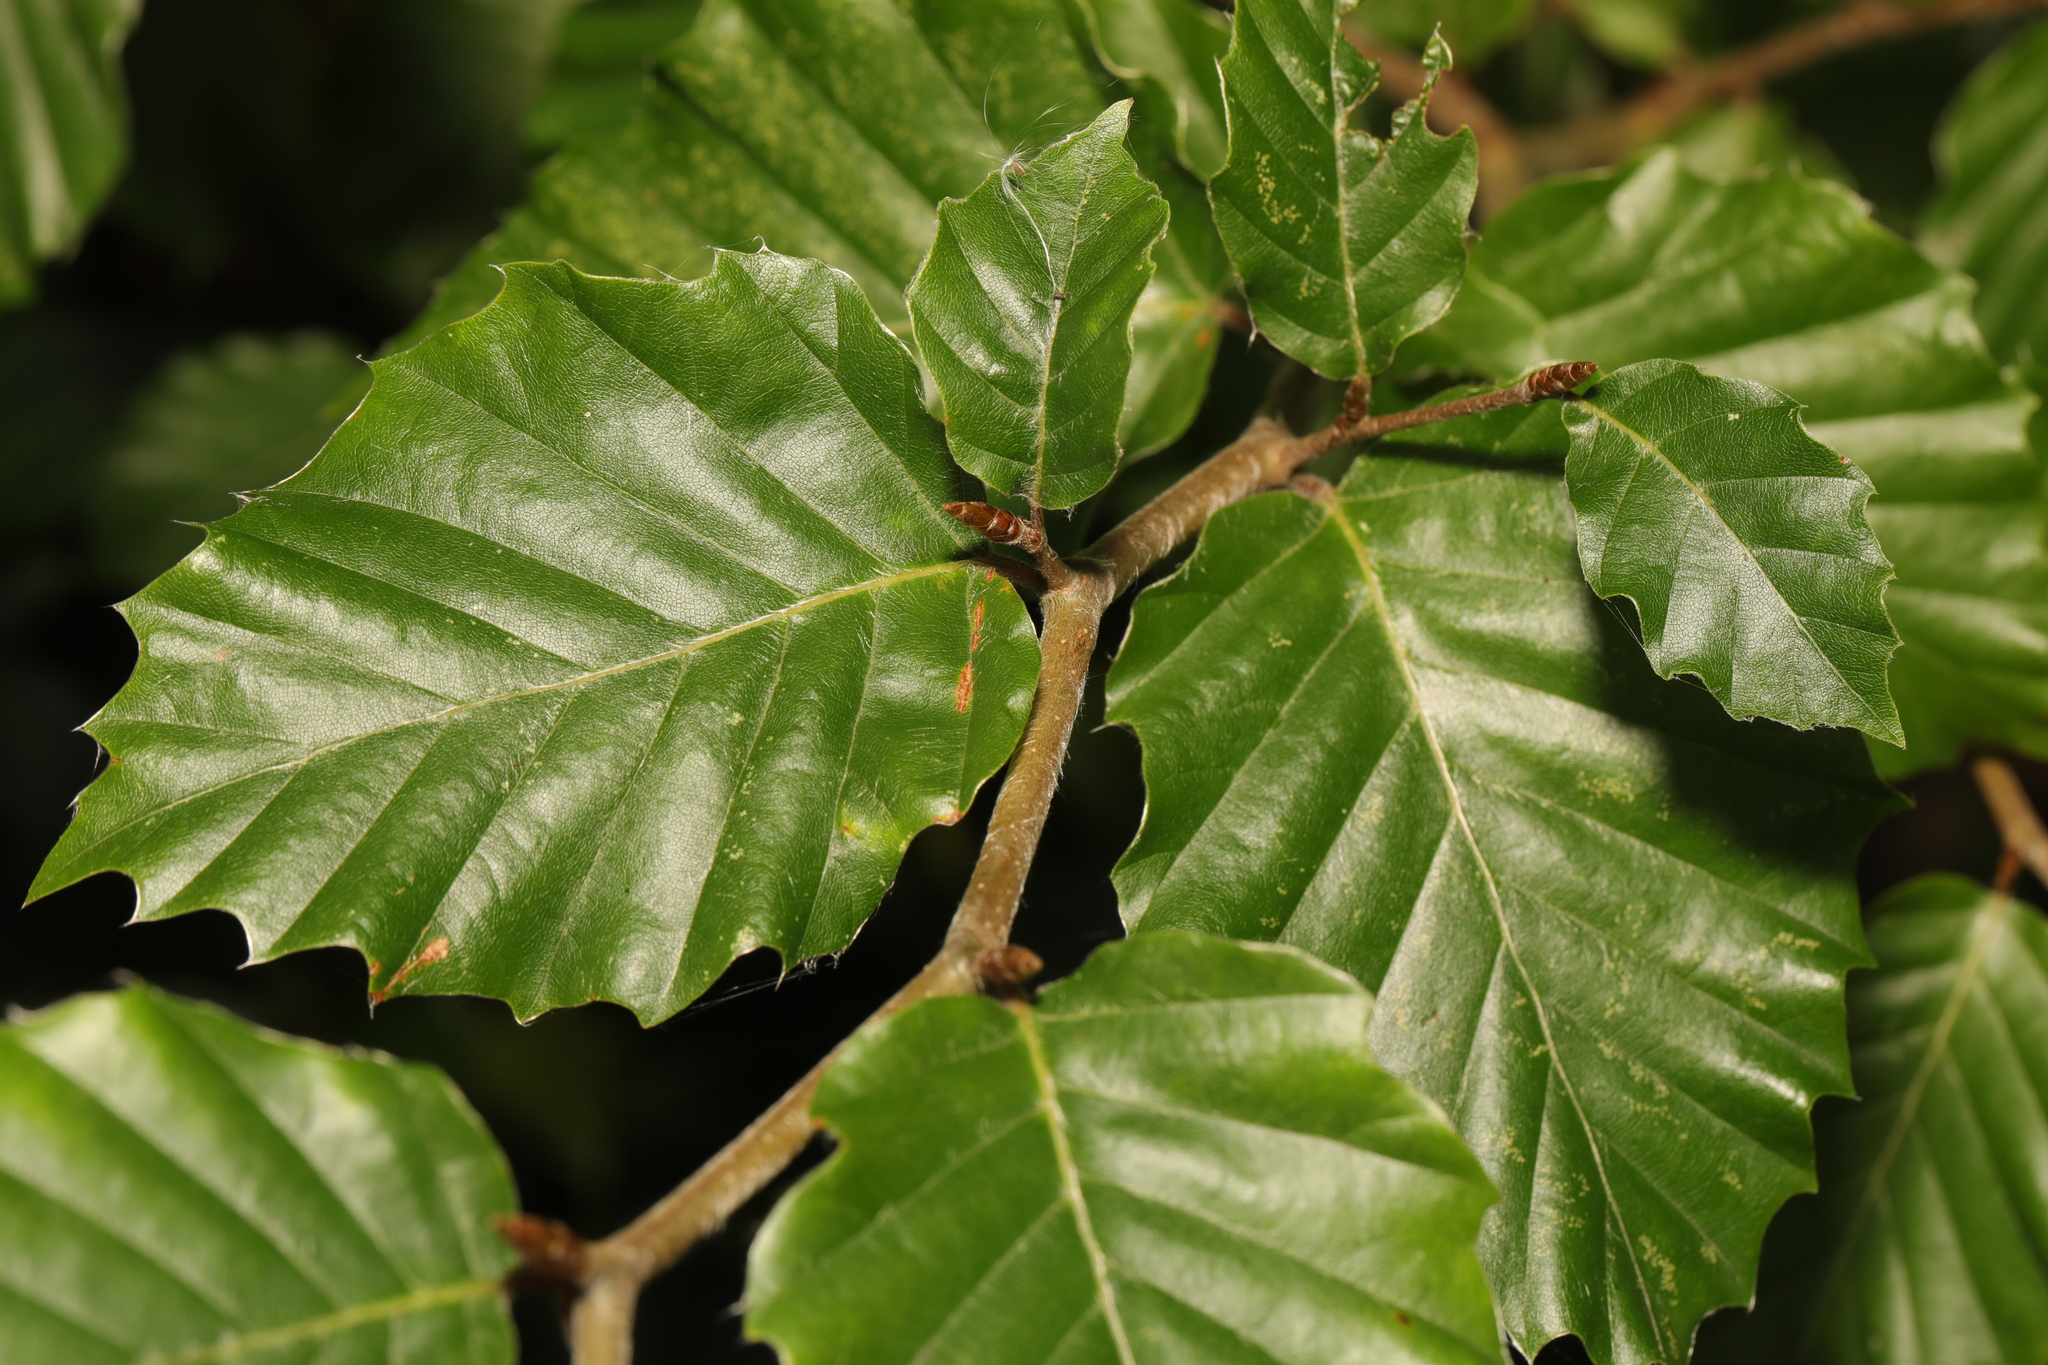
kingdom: Plantae
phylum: Tracheophyta
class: Magnoliopsida
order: Fagales
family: Fagaceae
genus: Fagus
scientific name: Fagus sylvatica
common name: Beech
